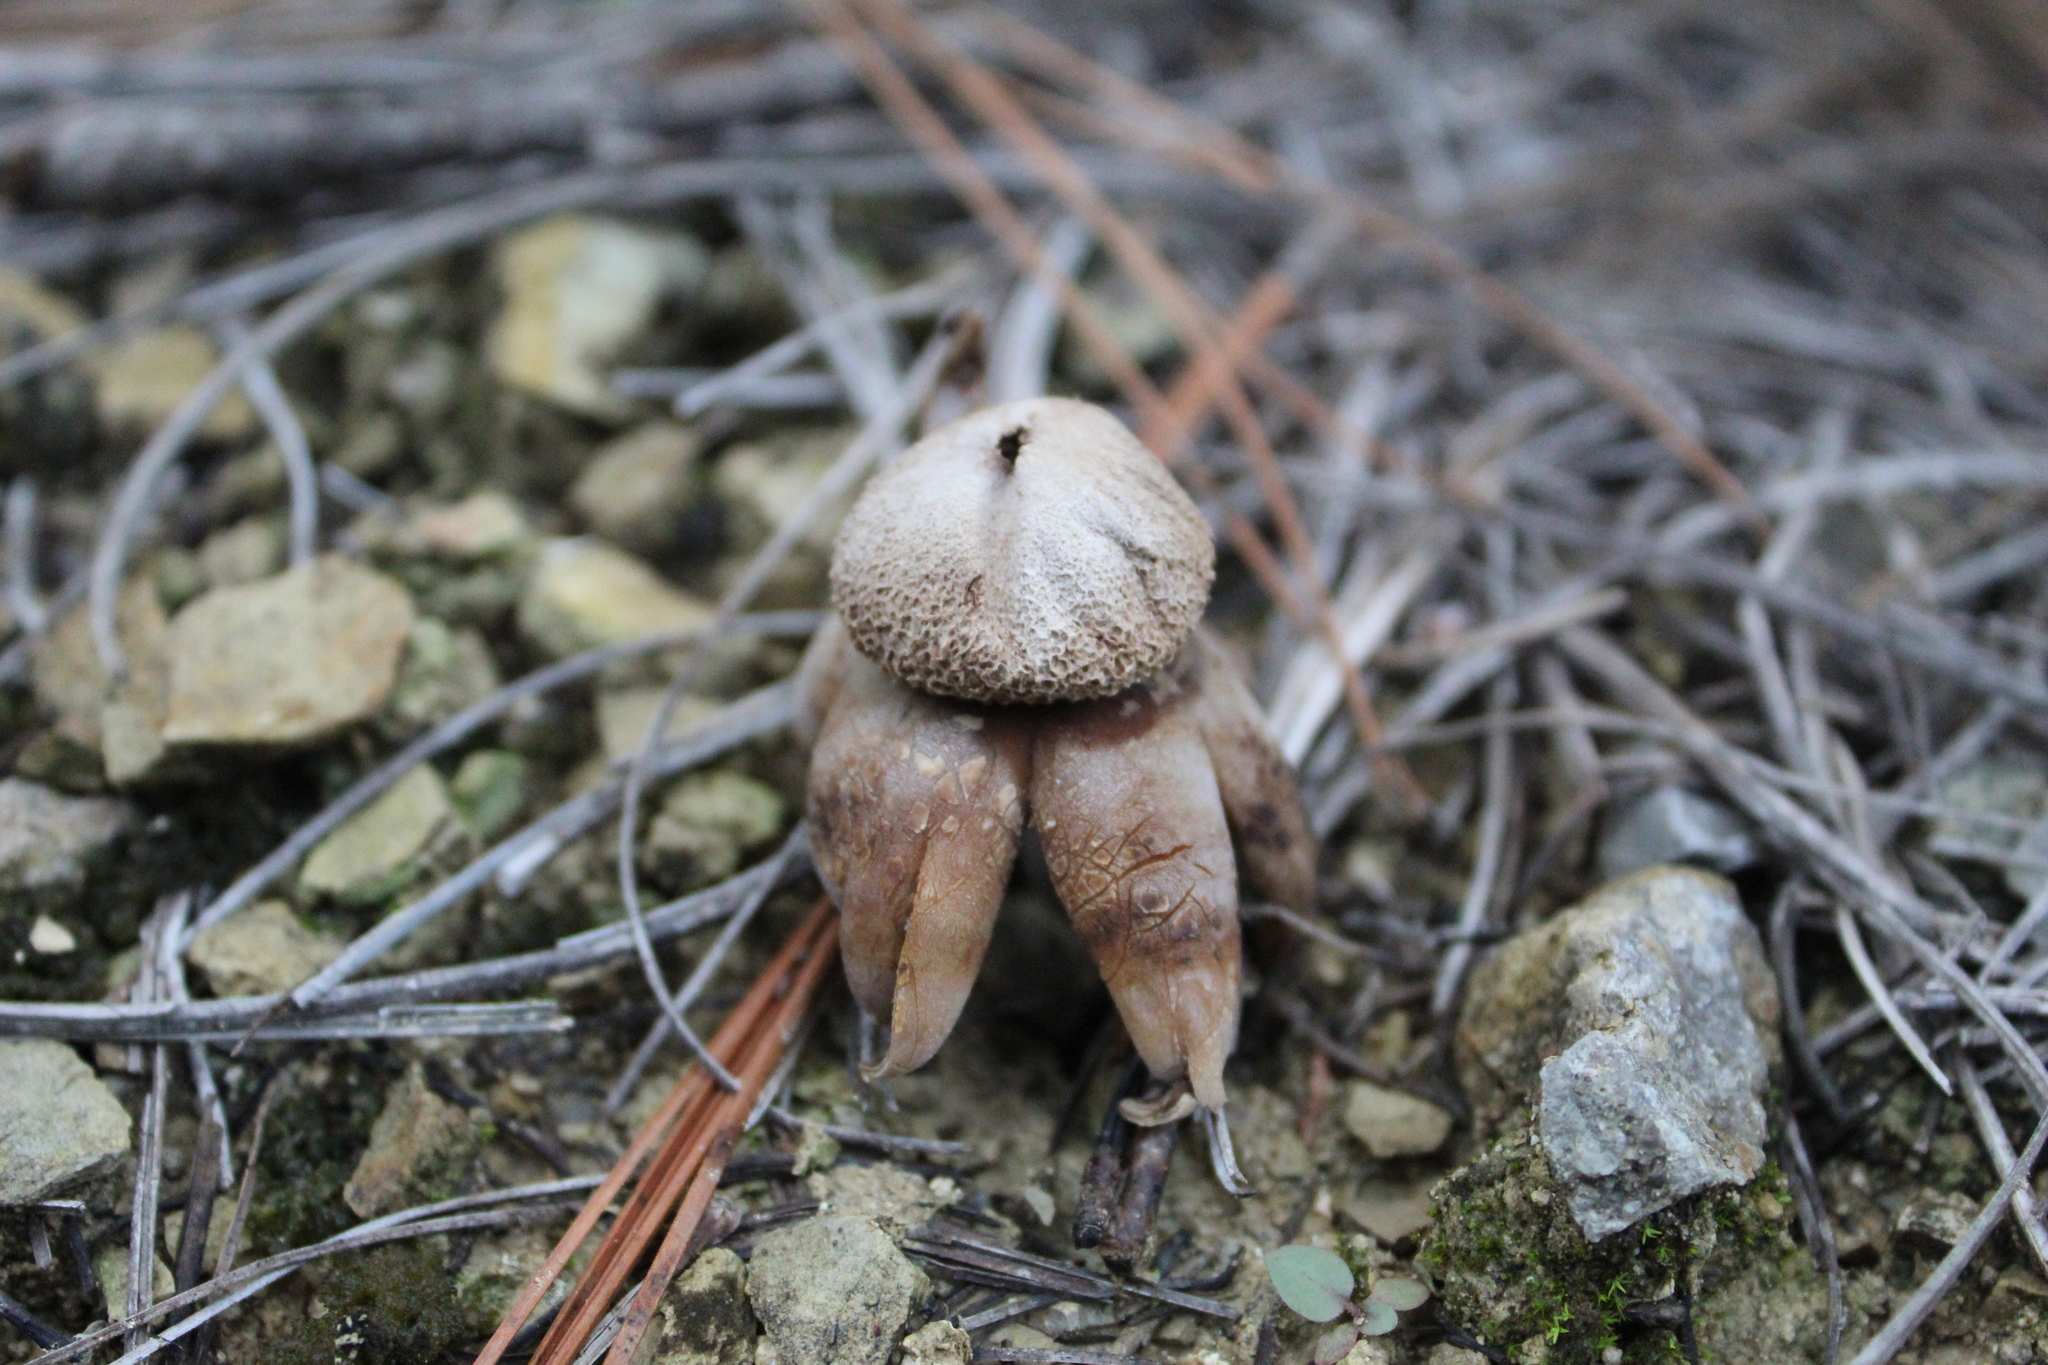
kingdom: Fungi
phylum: Basidiomycota
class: Agaricomycetes
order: Boletales
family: Diplocystidiaceae
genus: Astraeus
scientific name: Astraeus hygrometricus
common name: Barometer earthstar
